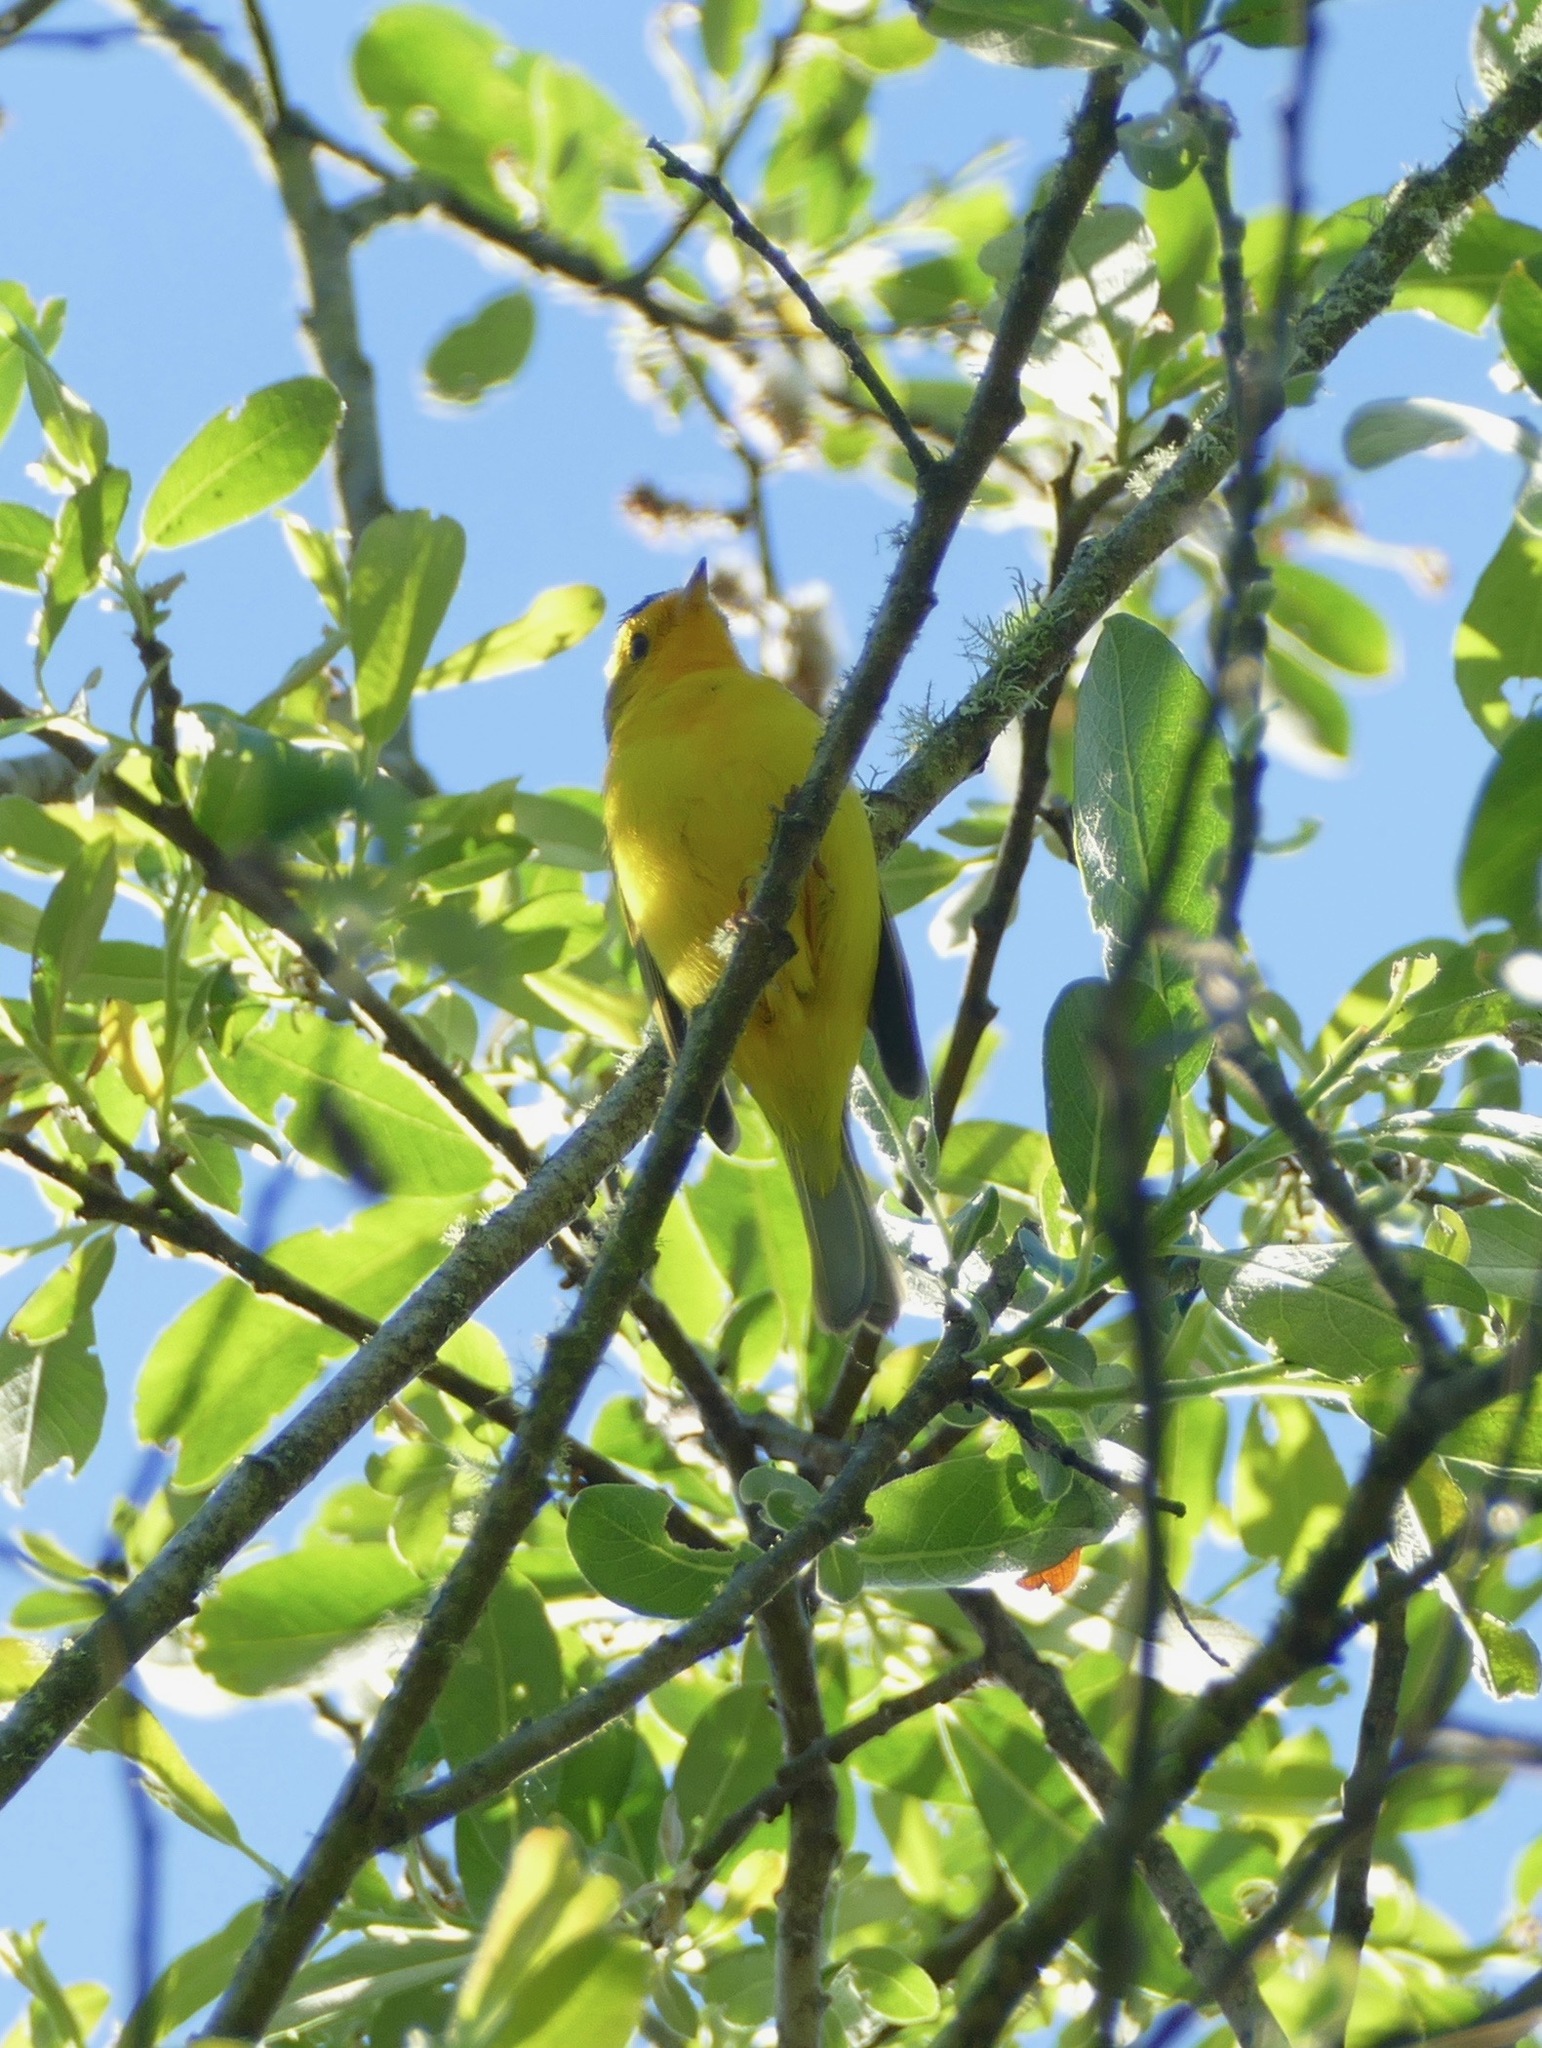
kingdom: Animalia
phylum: Chordata
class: Aves
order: Passeriformes
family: Parulidae
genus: Cardellina
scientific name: Cardellina pusilla
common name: Wilson's warbler
